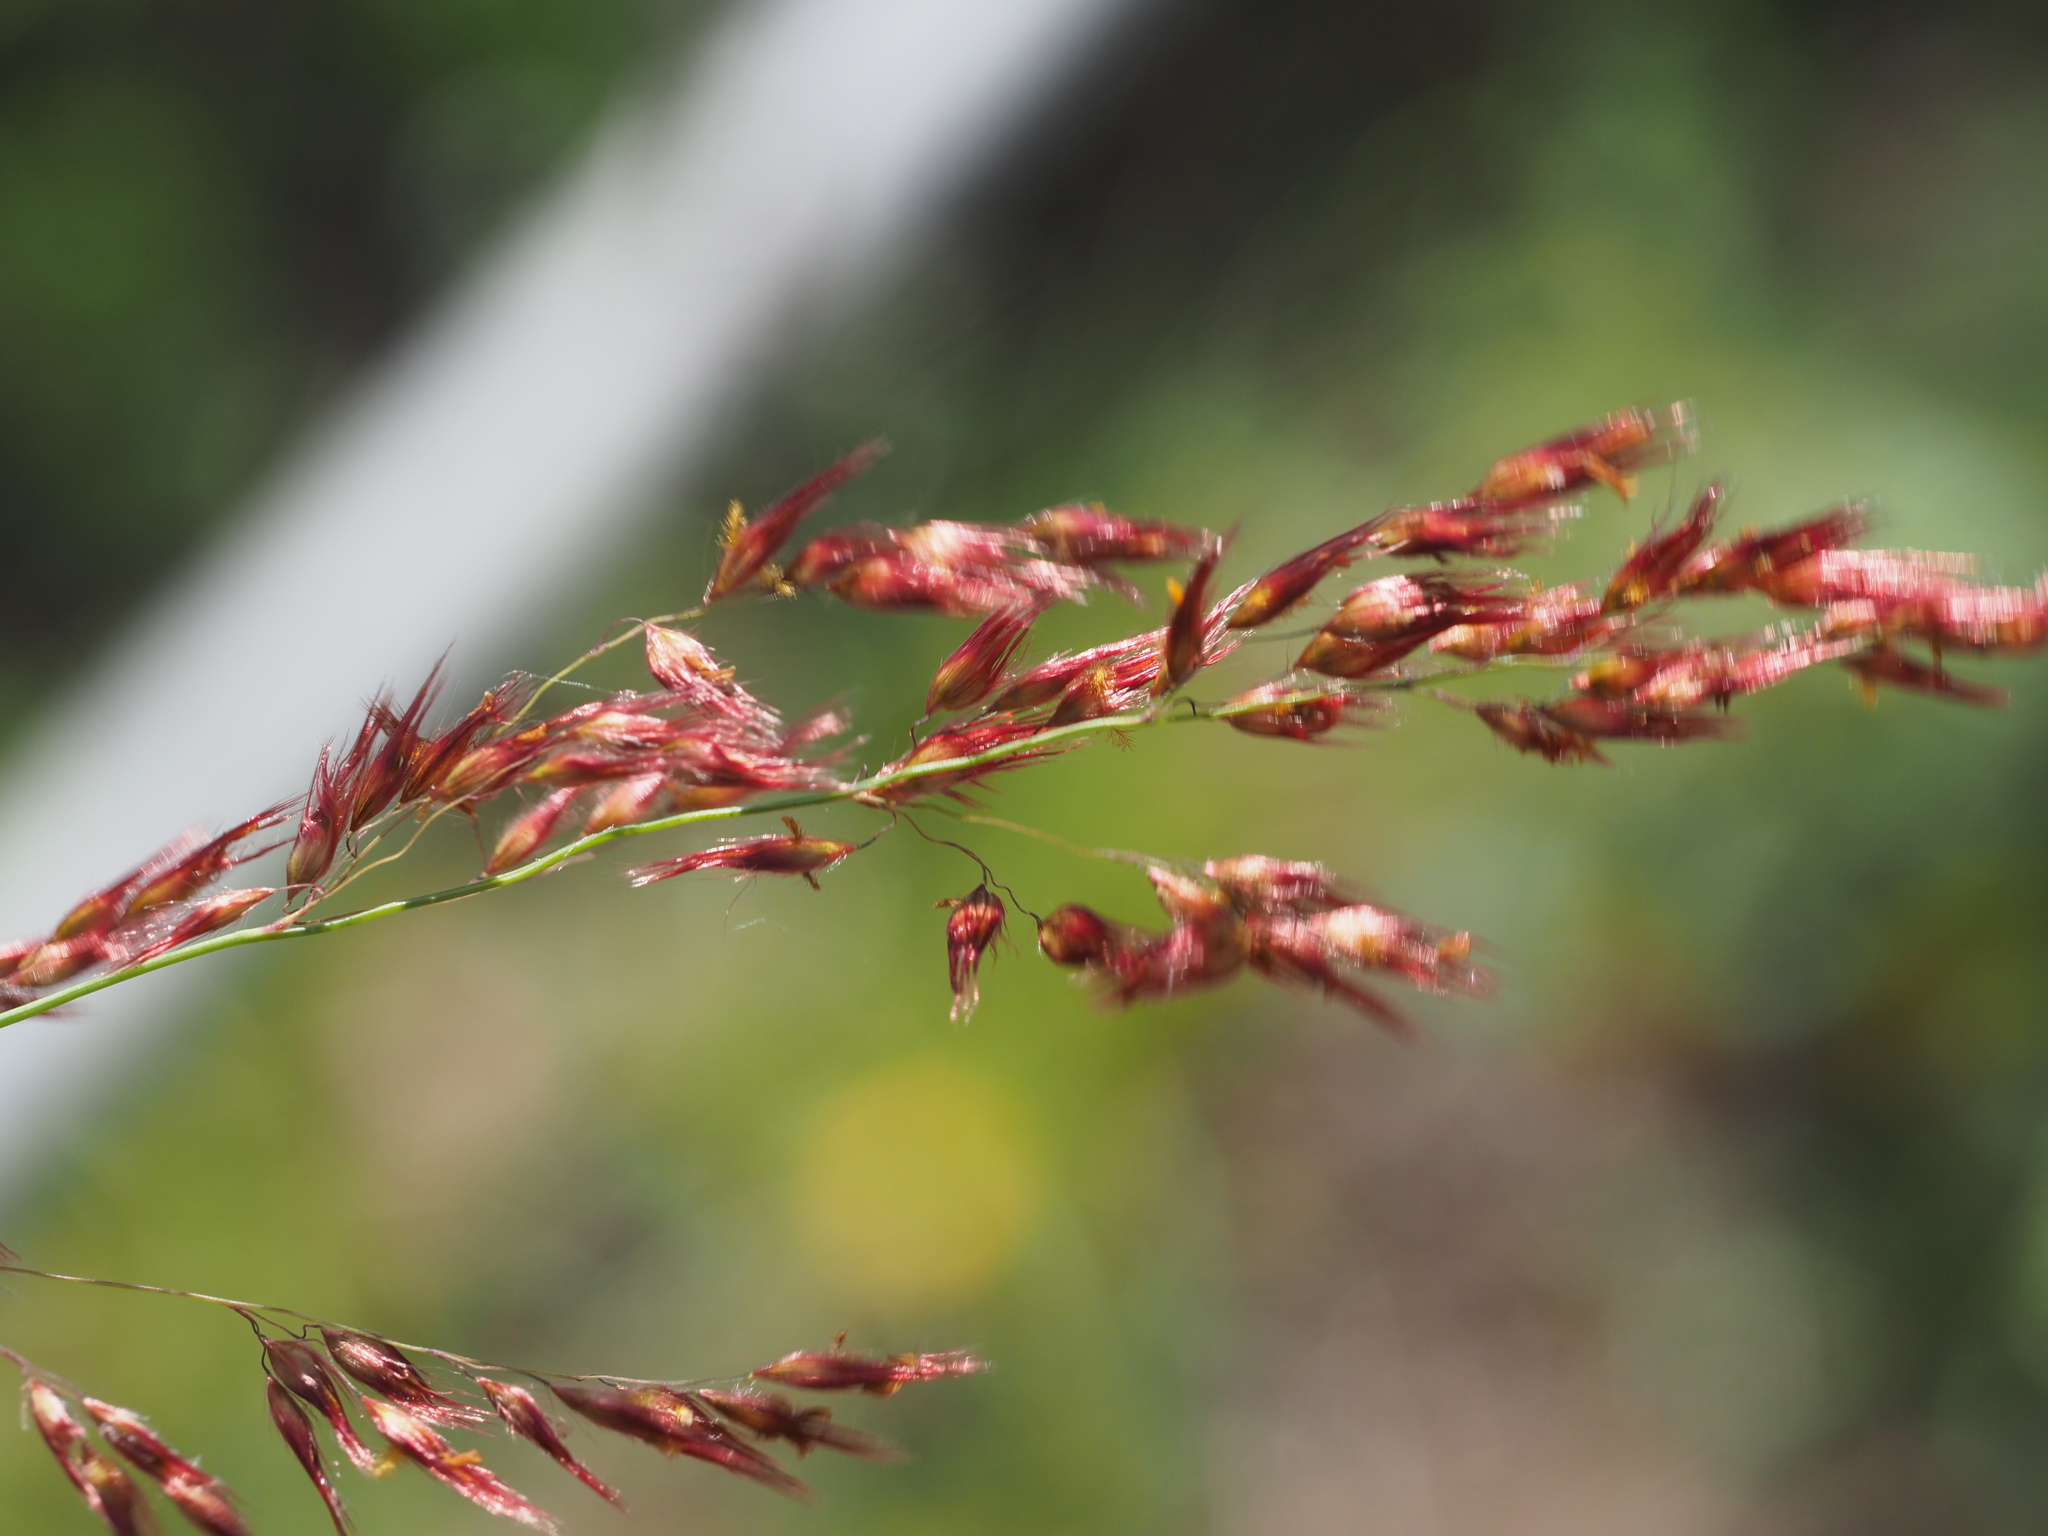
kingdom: Plantae
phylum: Tracheophyta
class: Liliopsida
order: Poales
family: Poaceae
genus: Melinis
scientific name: Melinis repens
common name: Rose natal grass
